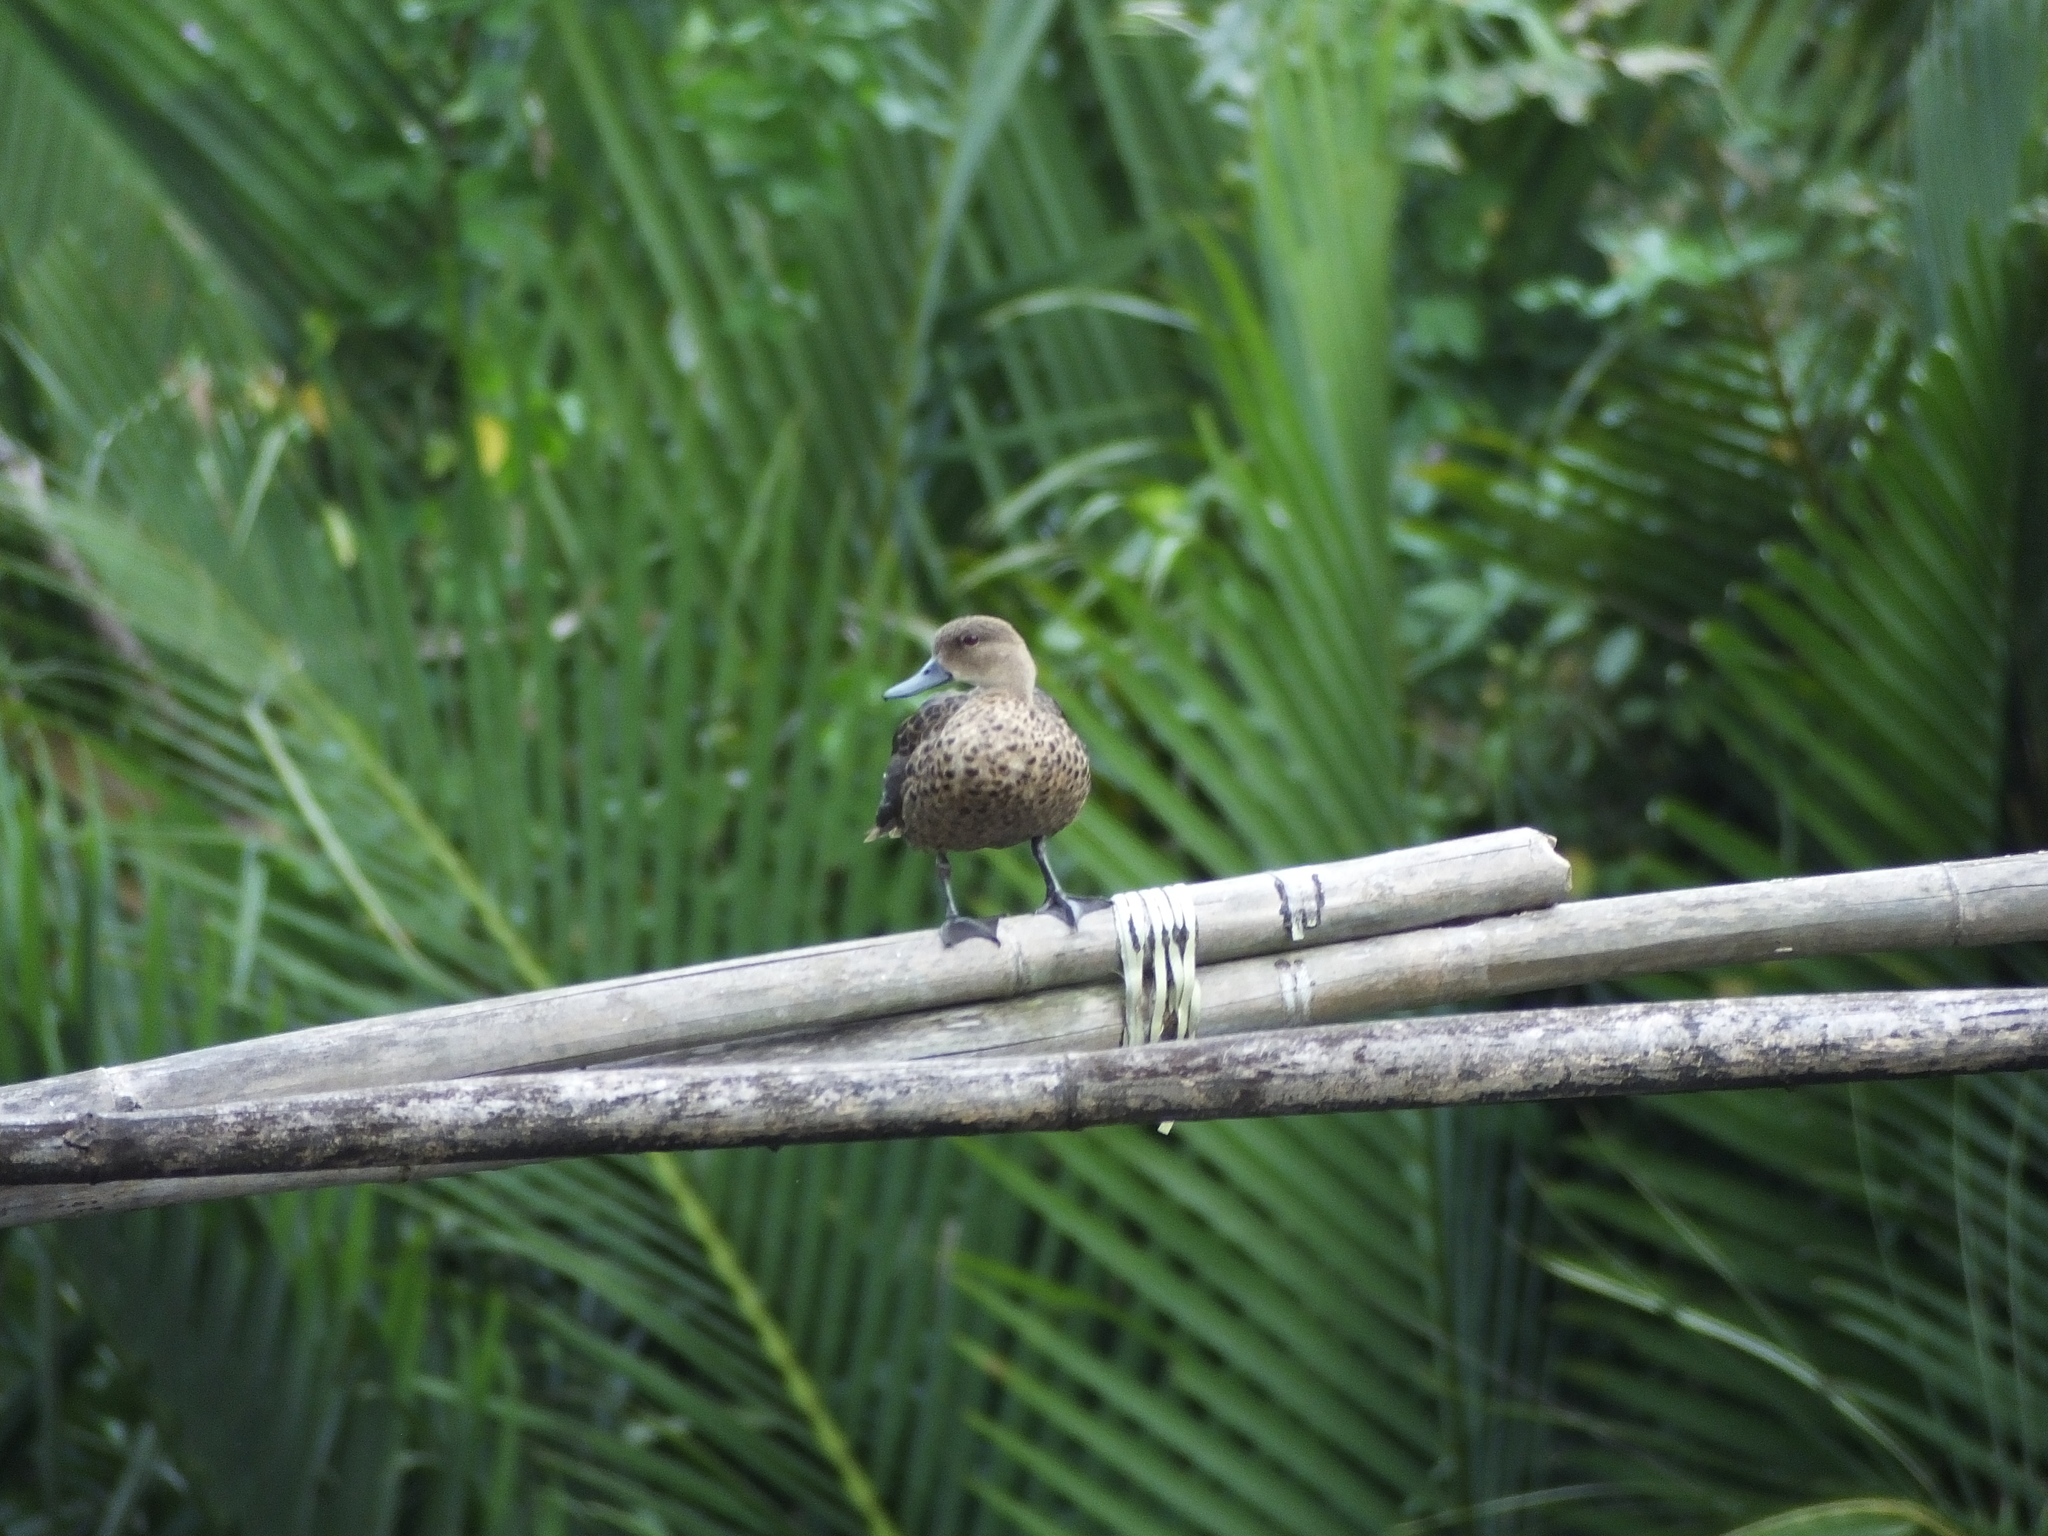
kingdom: Animalia
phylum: Chordata
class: Aves
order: Anseriformes
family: Anatidae
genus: Anas
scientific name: Anas gibberifrons
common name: Sunda teal
